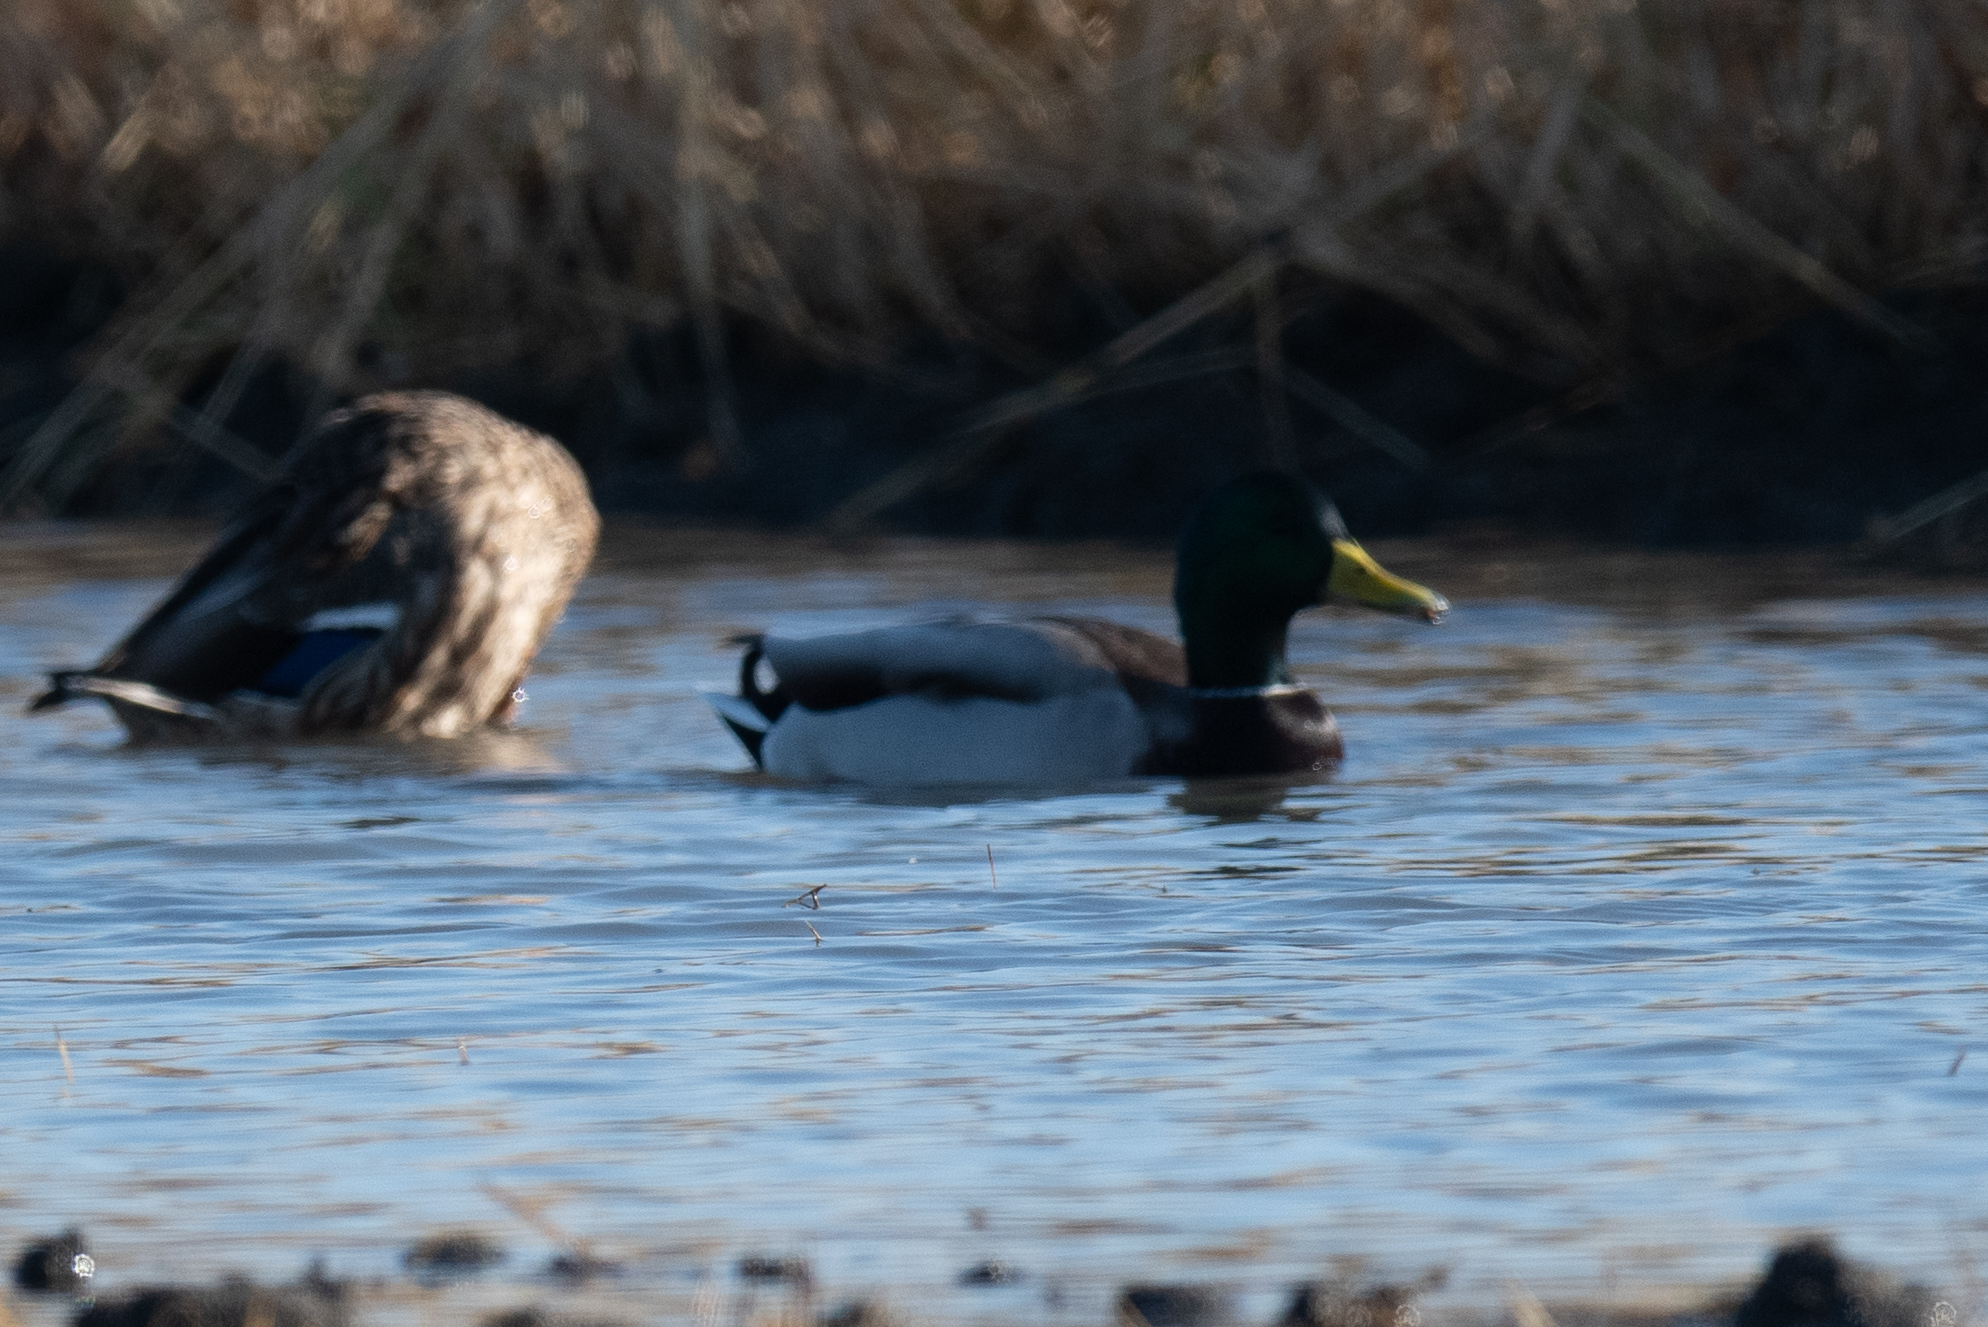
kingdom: Animalia
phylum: Chordata
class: Aves
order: Anseriformes
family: Anatidae
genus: Anas
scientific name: Anas platyrhynchos
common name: Mallard
